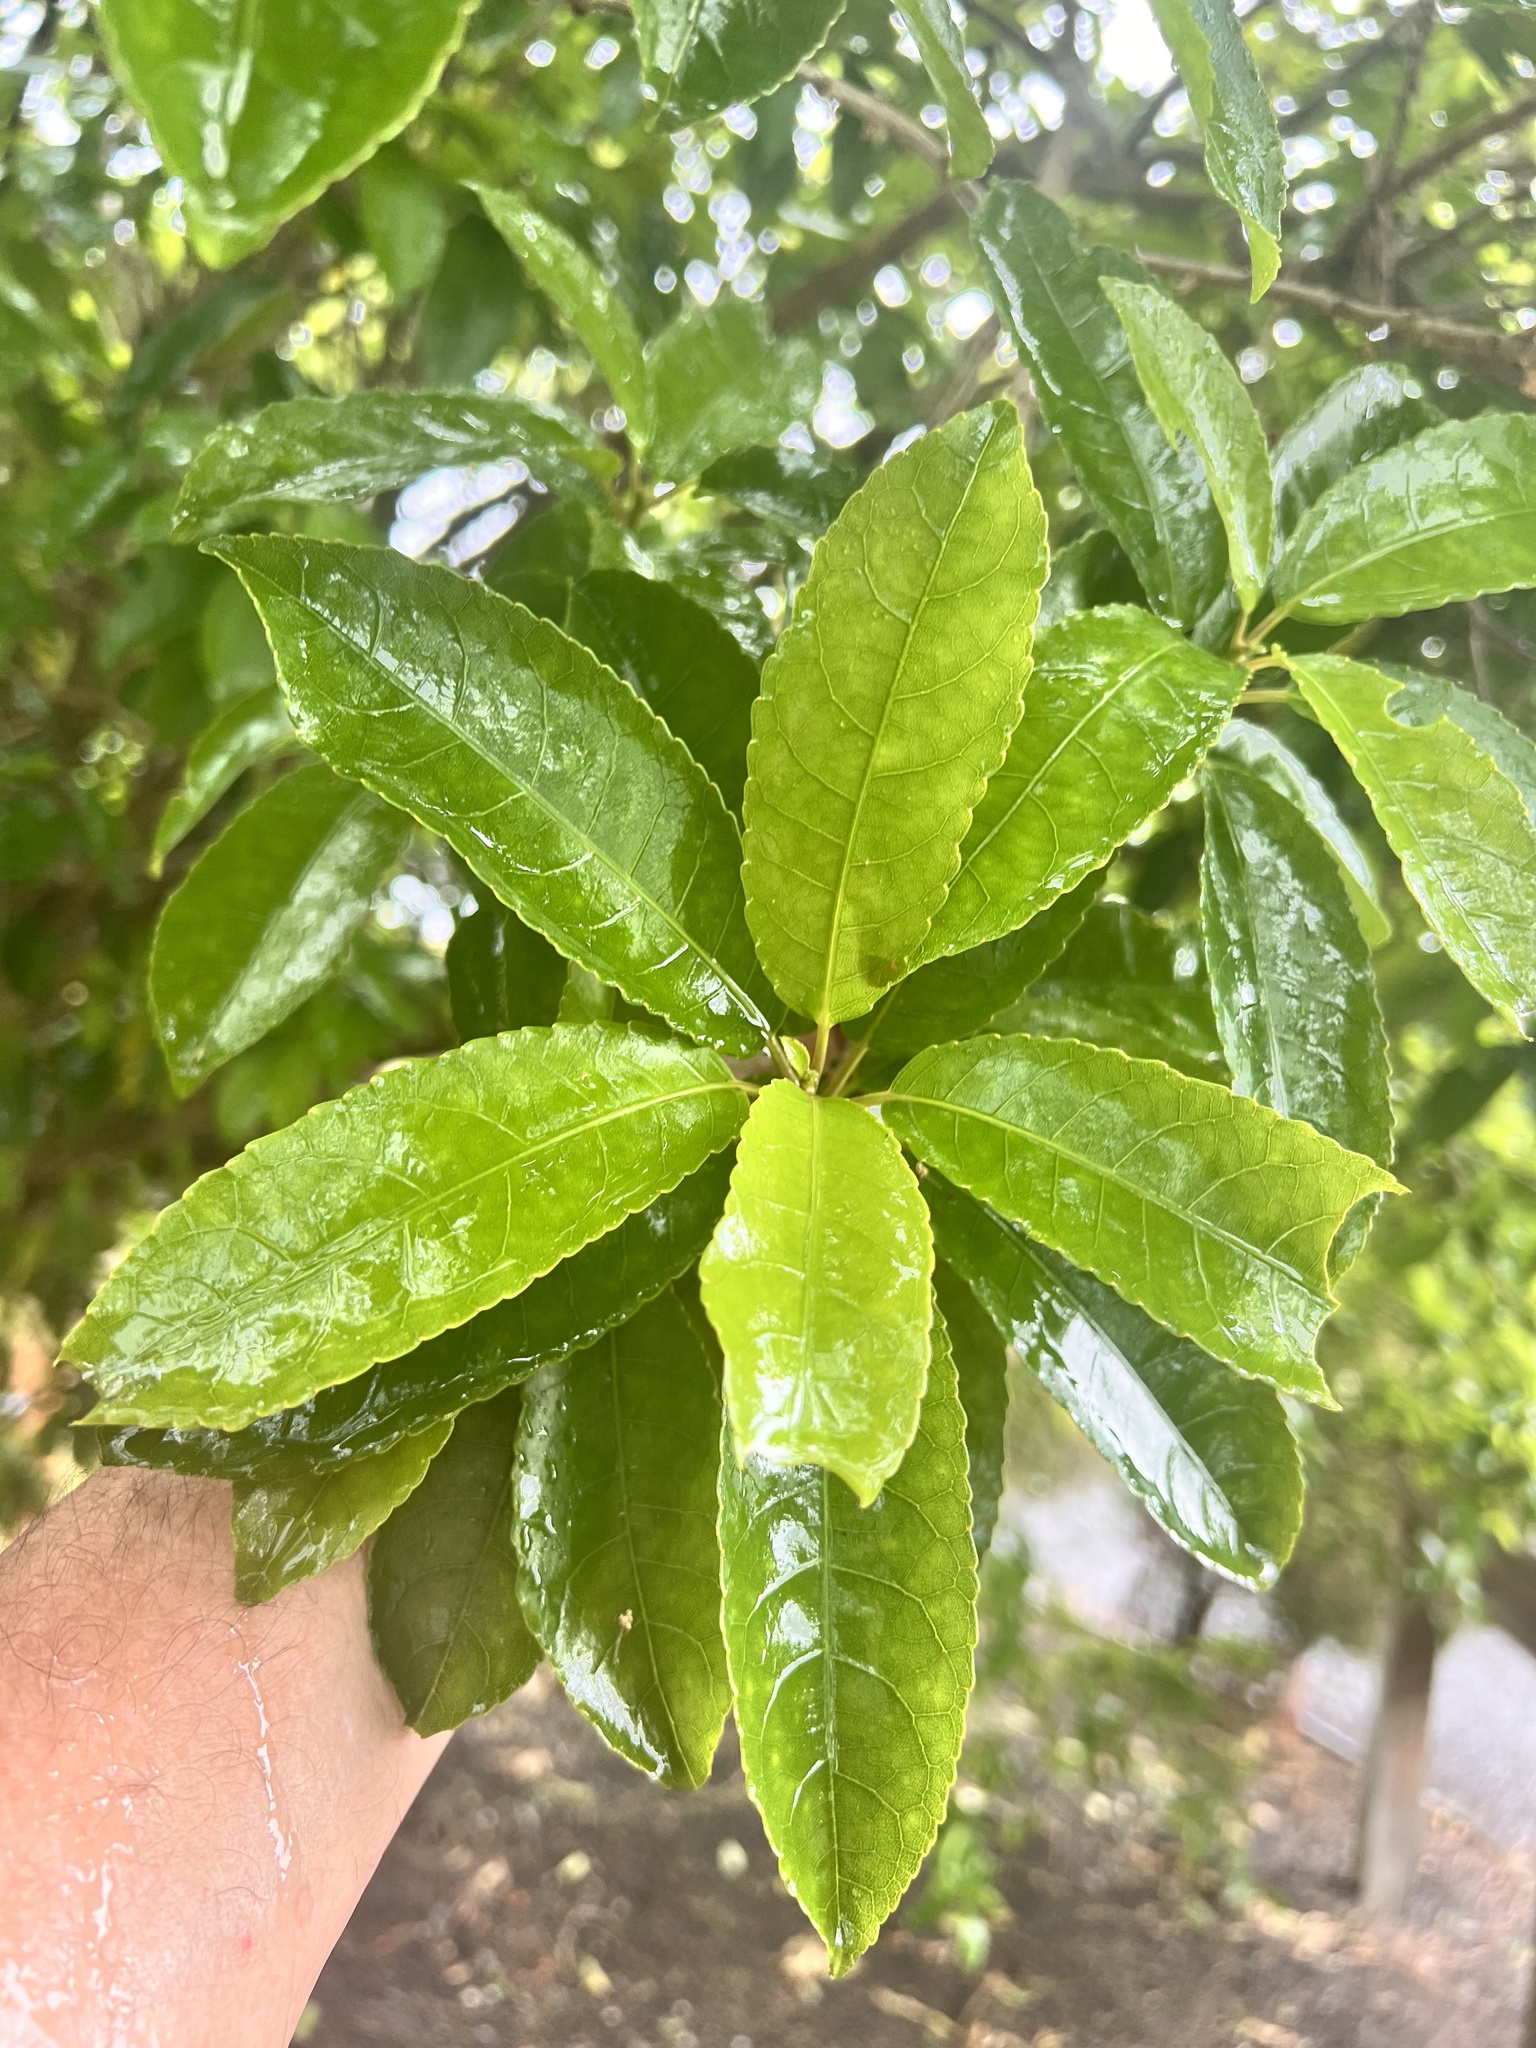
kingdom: Plantae
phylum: Tracheophyta
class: Magnoliopsida
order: Myrtales
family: Myrtaceae
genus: Leptospermum
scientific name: Leptospermum scoparium
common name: Broom tea-tree
